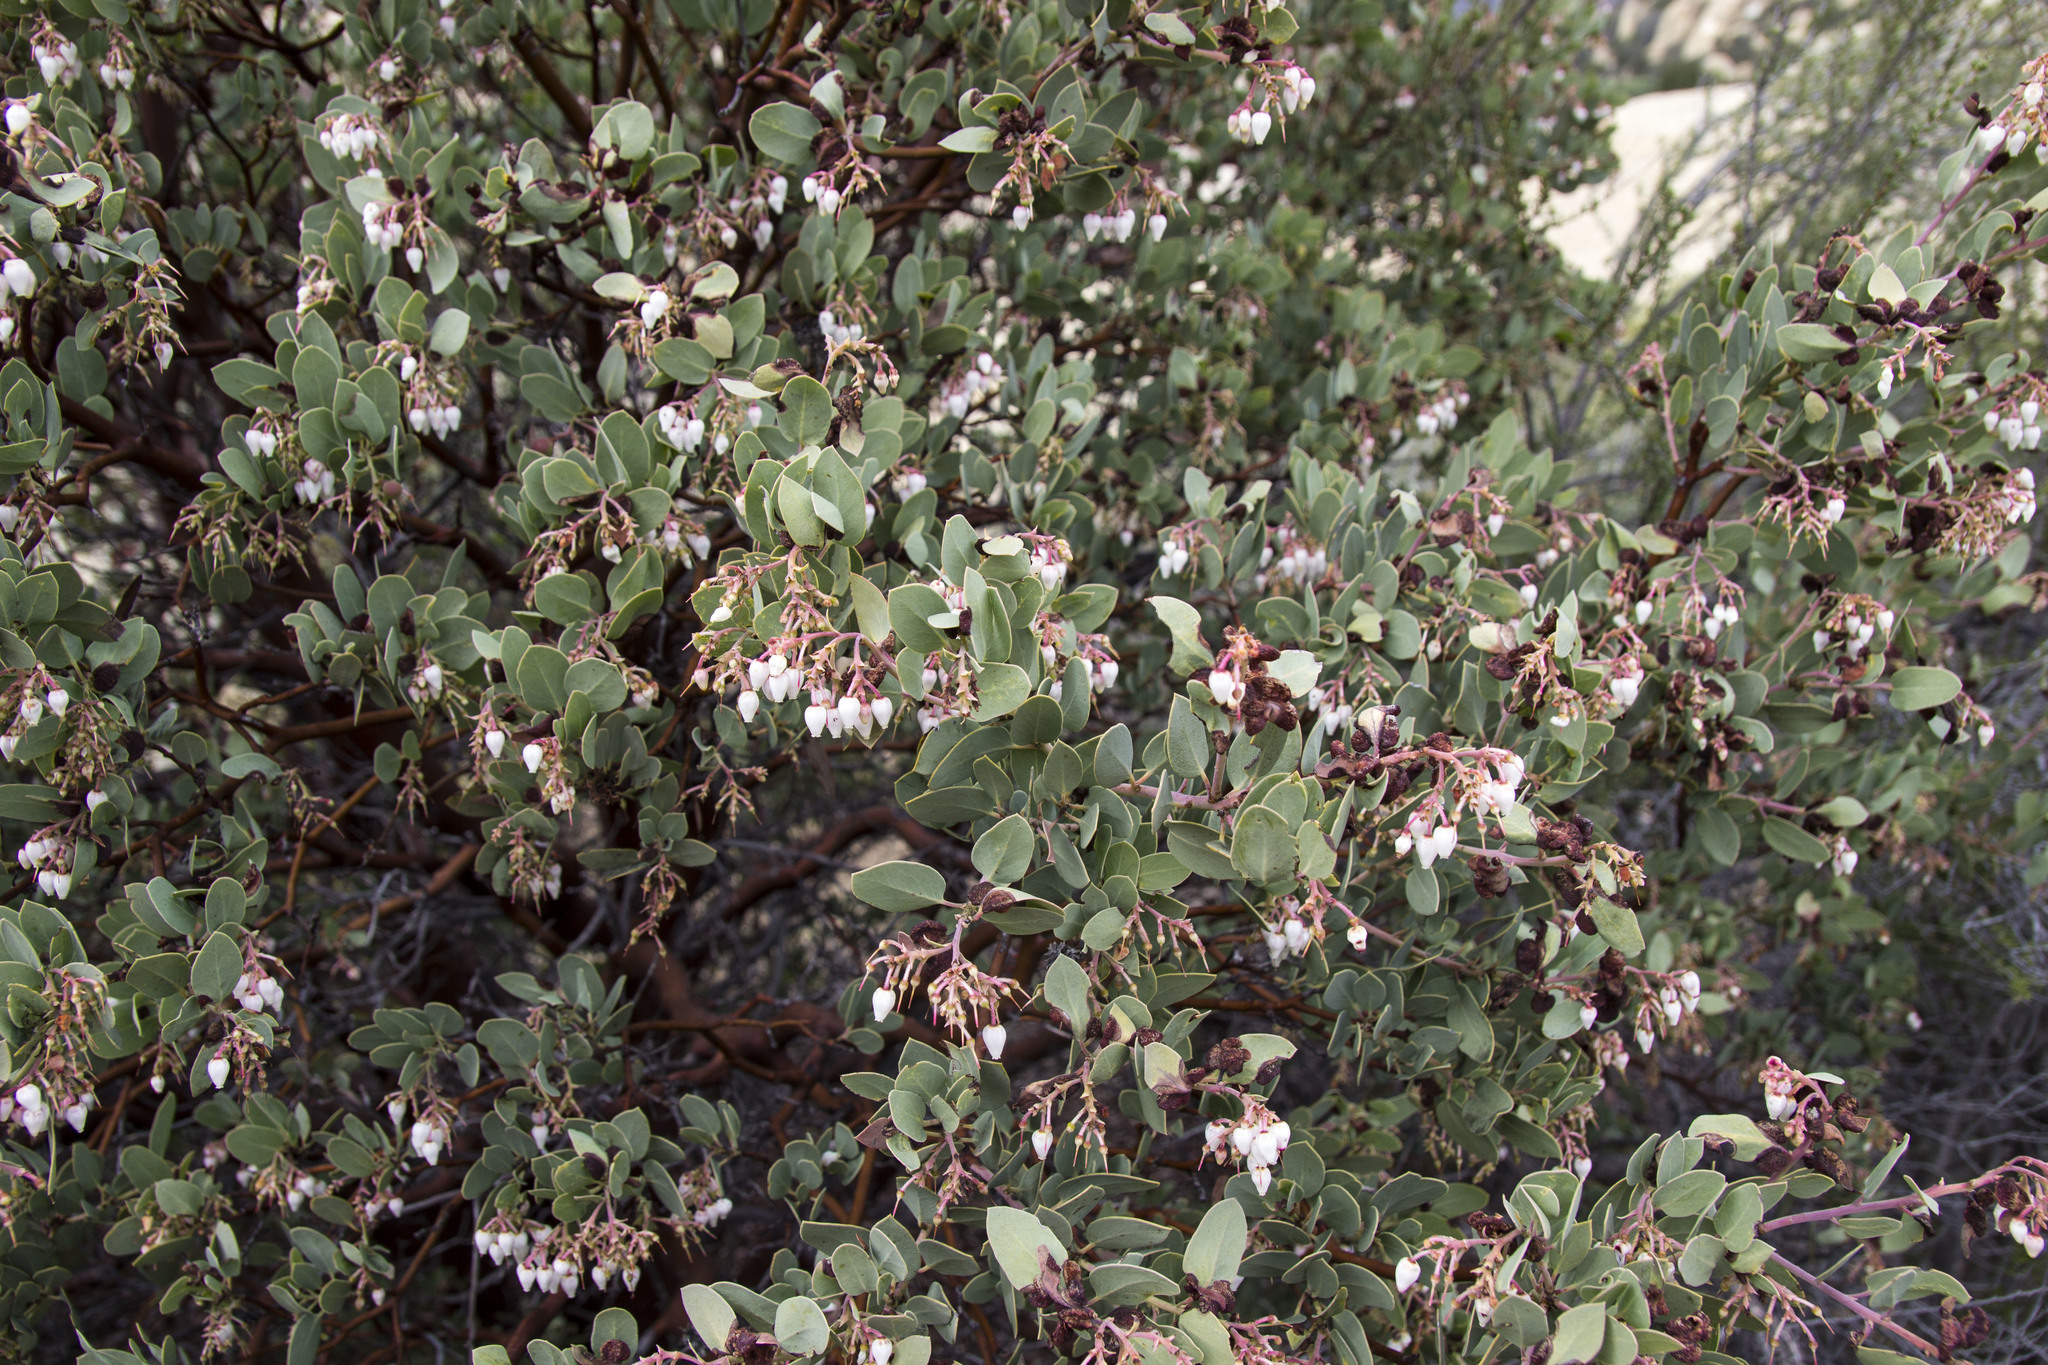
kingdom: Plantae
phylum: Tracheophyta
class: Magnoliopsida
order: Ericales
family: Ericaceae
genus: Arctostaphylos
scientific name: Arctostaphylos glauca
